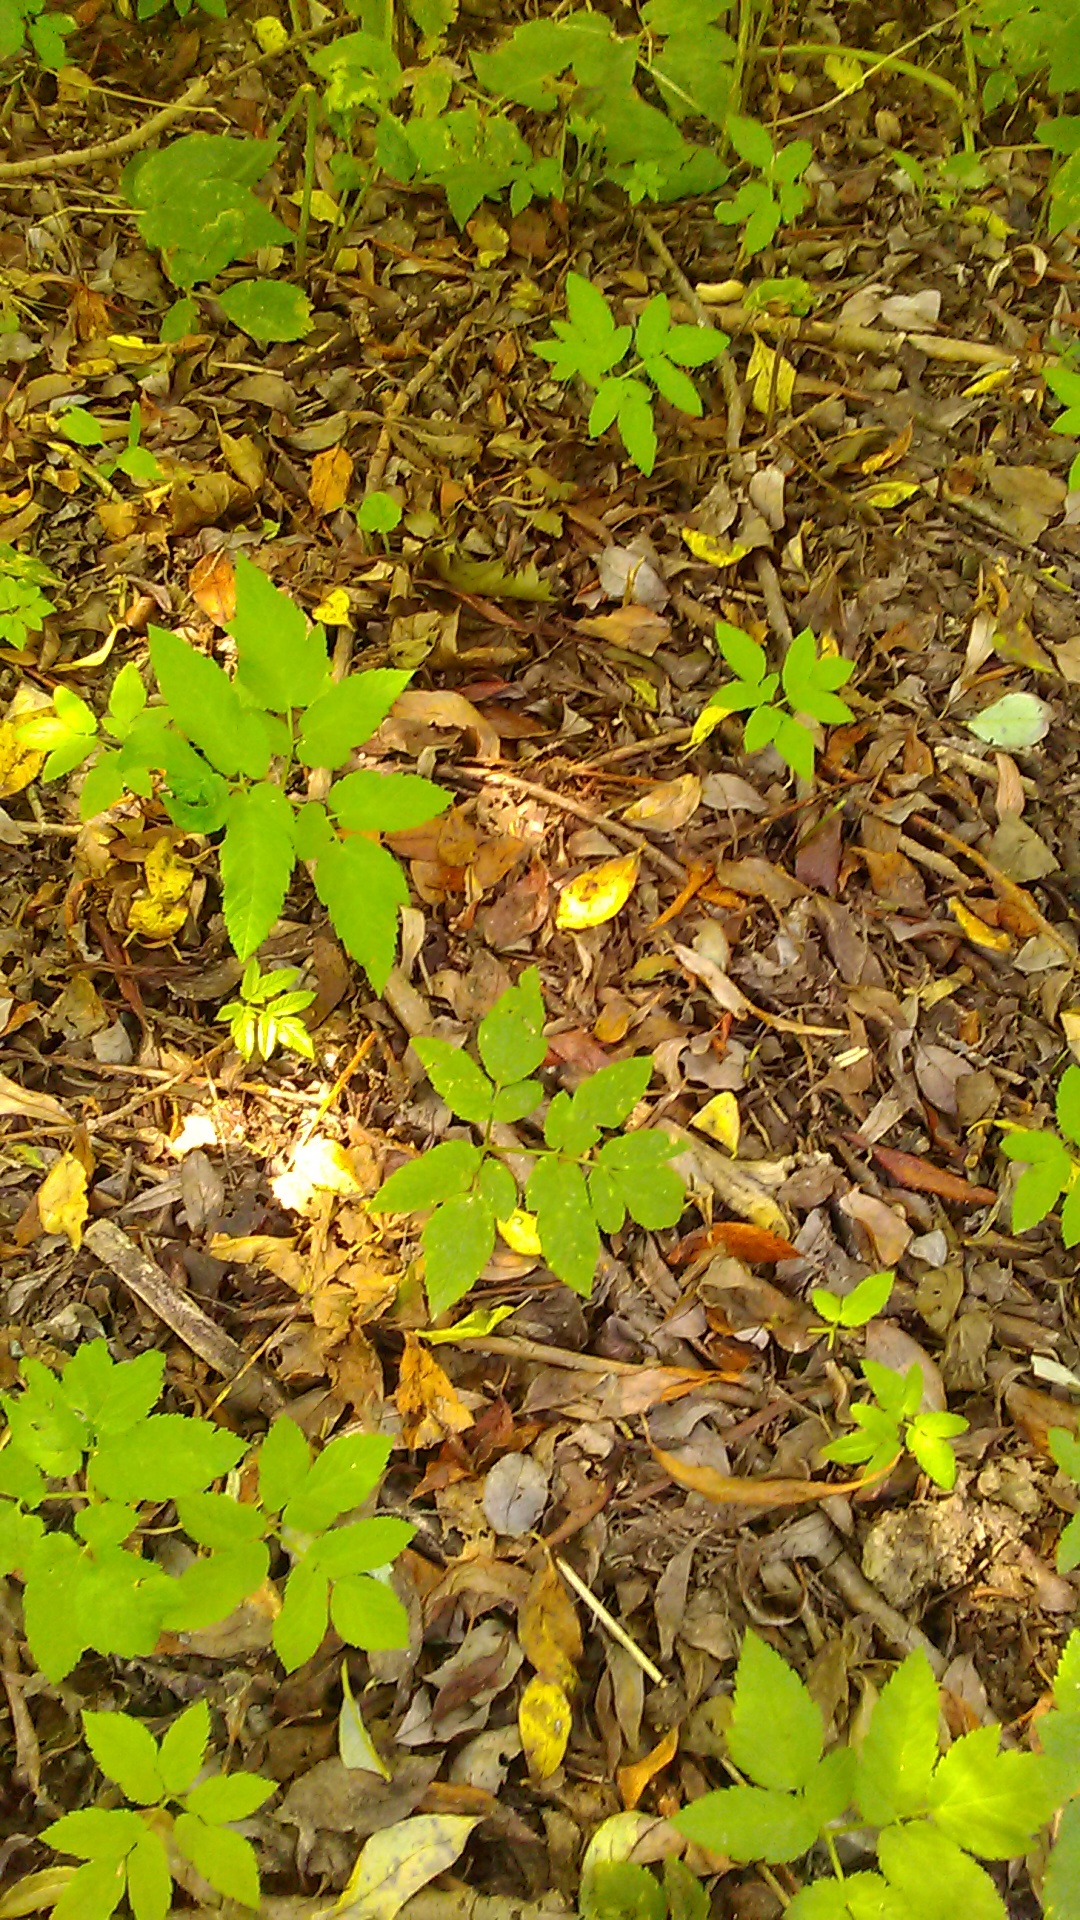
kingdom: Plantae
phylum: Tracheophyta
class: Magnoliopsida
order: Apiales
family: Apiaceae
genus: Aegopodium
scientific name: Aegopodium podagraria
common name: Ground-elder
